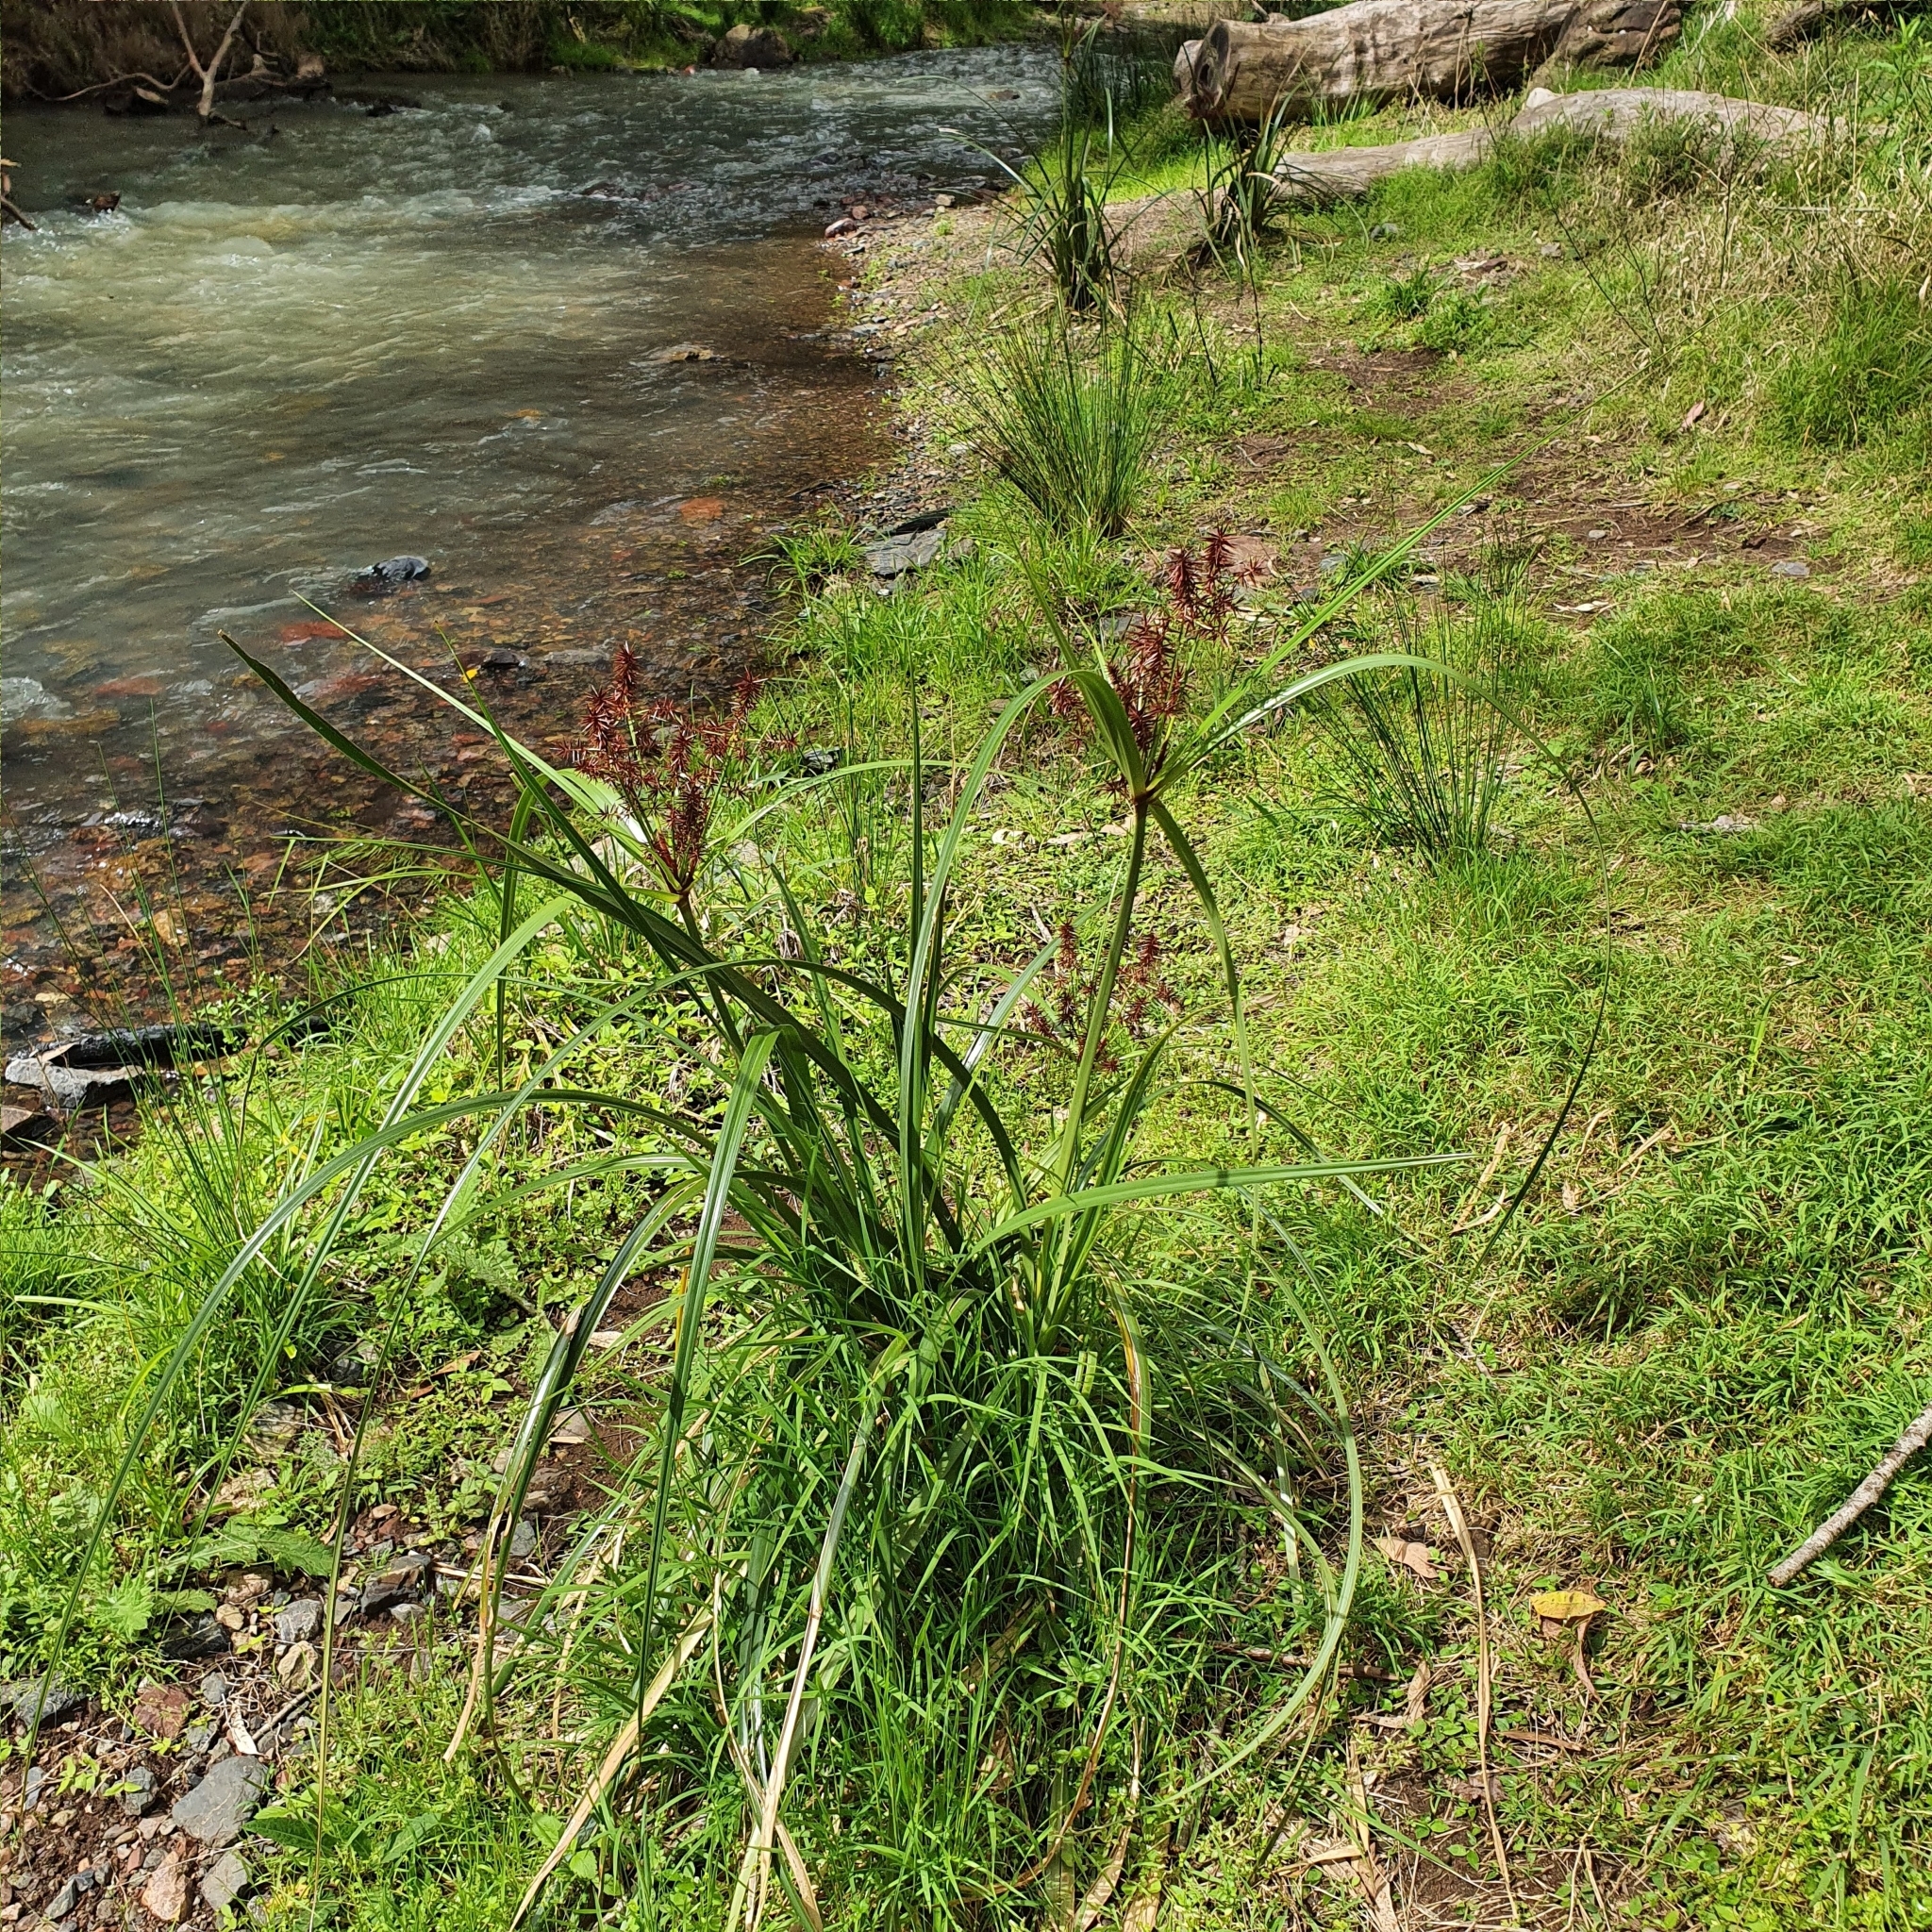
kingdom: Plantae
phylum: Tracheophyta
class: Liliopsida
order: Poales
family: Cyperaceae
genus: Cyperus
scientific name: Cyperus lucidus
